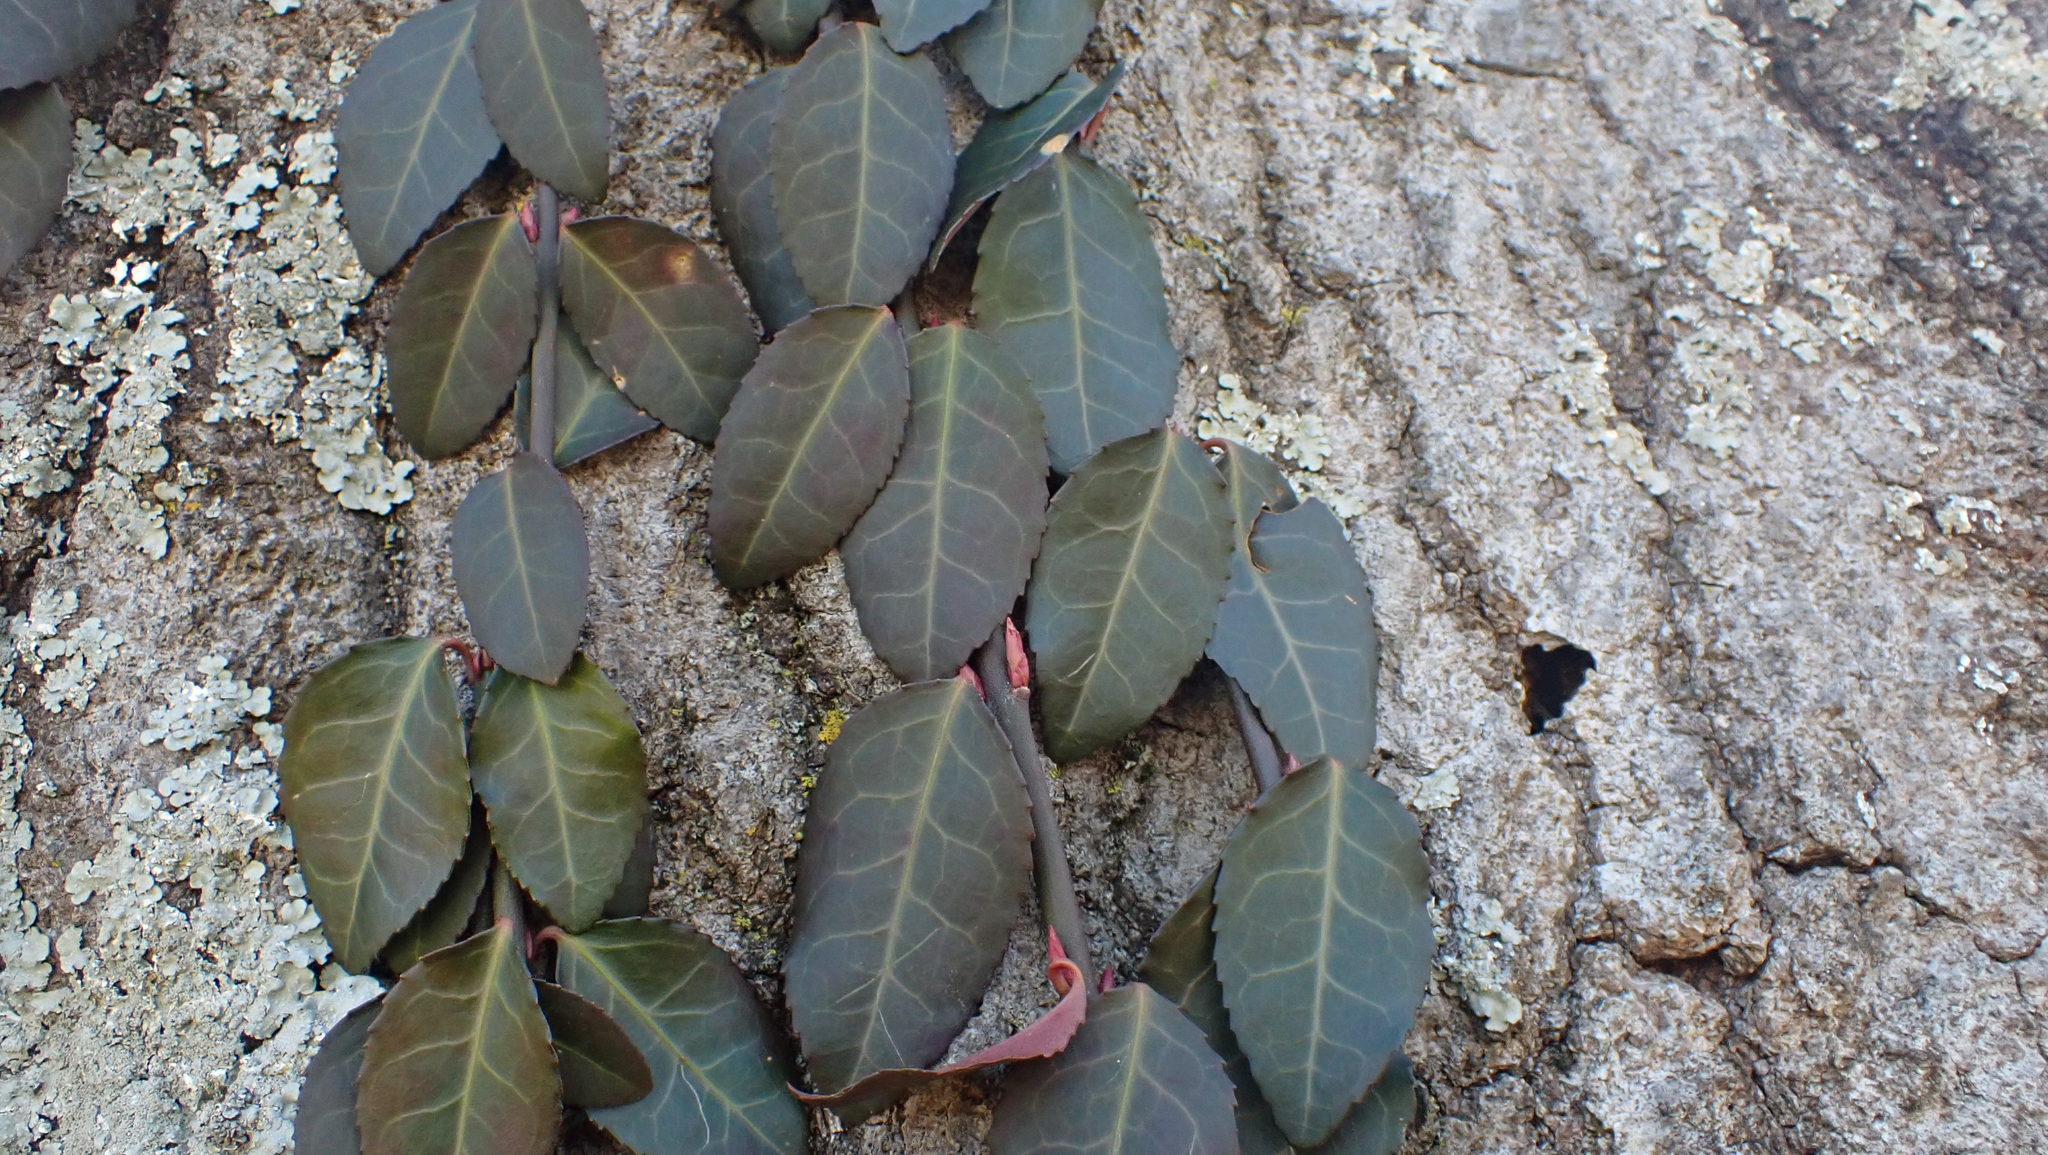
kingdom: Plantae
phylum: Tracheophyta
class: Magnoliopsida
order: Celastrales
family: Celastraceae
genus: Euonymus
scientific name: Euonymus fortunei
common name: Climbing euonymus
